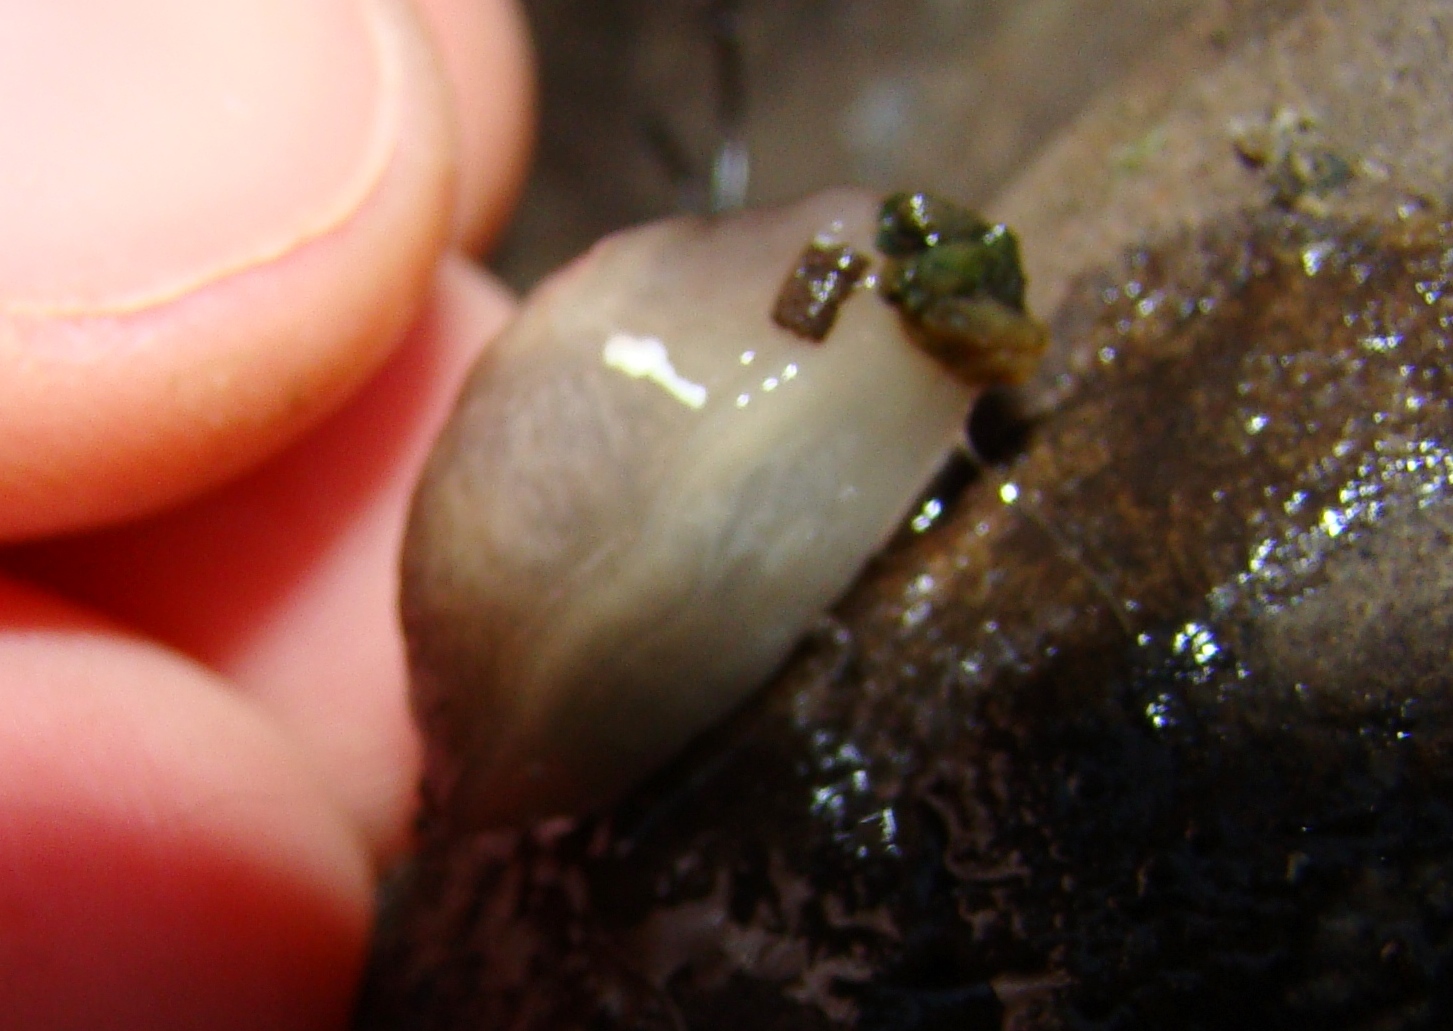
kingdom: Animalia
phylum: Mollusca
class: Gastropoda
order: Stylommatophora
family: Agriolimacidae
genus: Deroceras
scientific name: Deroceras reticulatum
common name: Gray field slug
